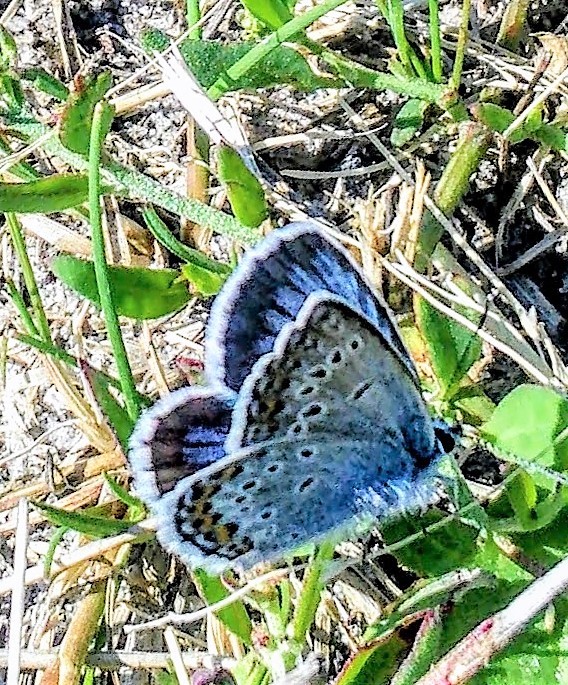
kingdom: Animalia
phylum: Arthropoda
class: Insecta
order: Lepidoptera
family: Lycaenidae
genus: Plebejus
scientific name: Plebejus argus
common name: Silver-studded blue
